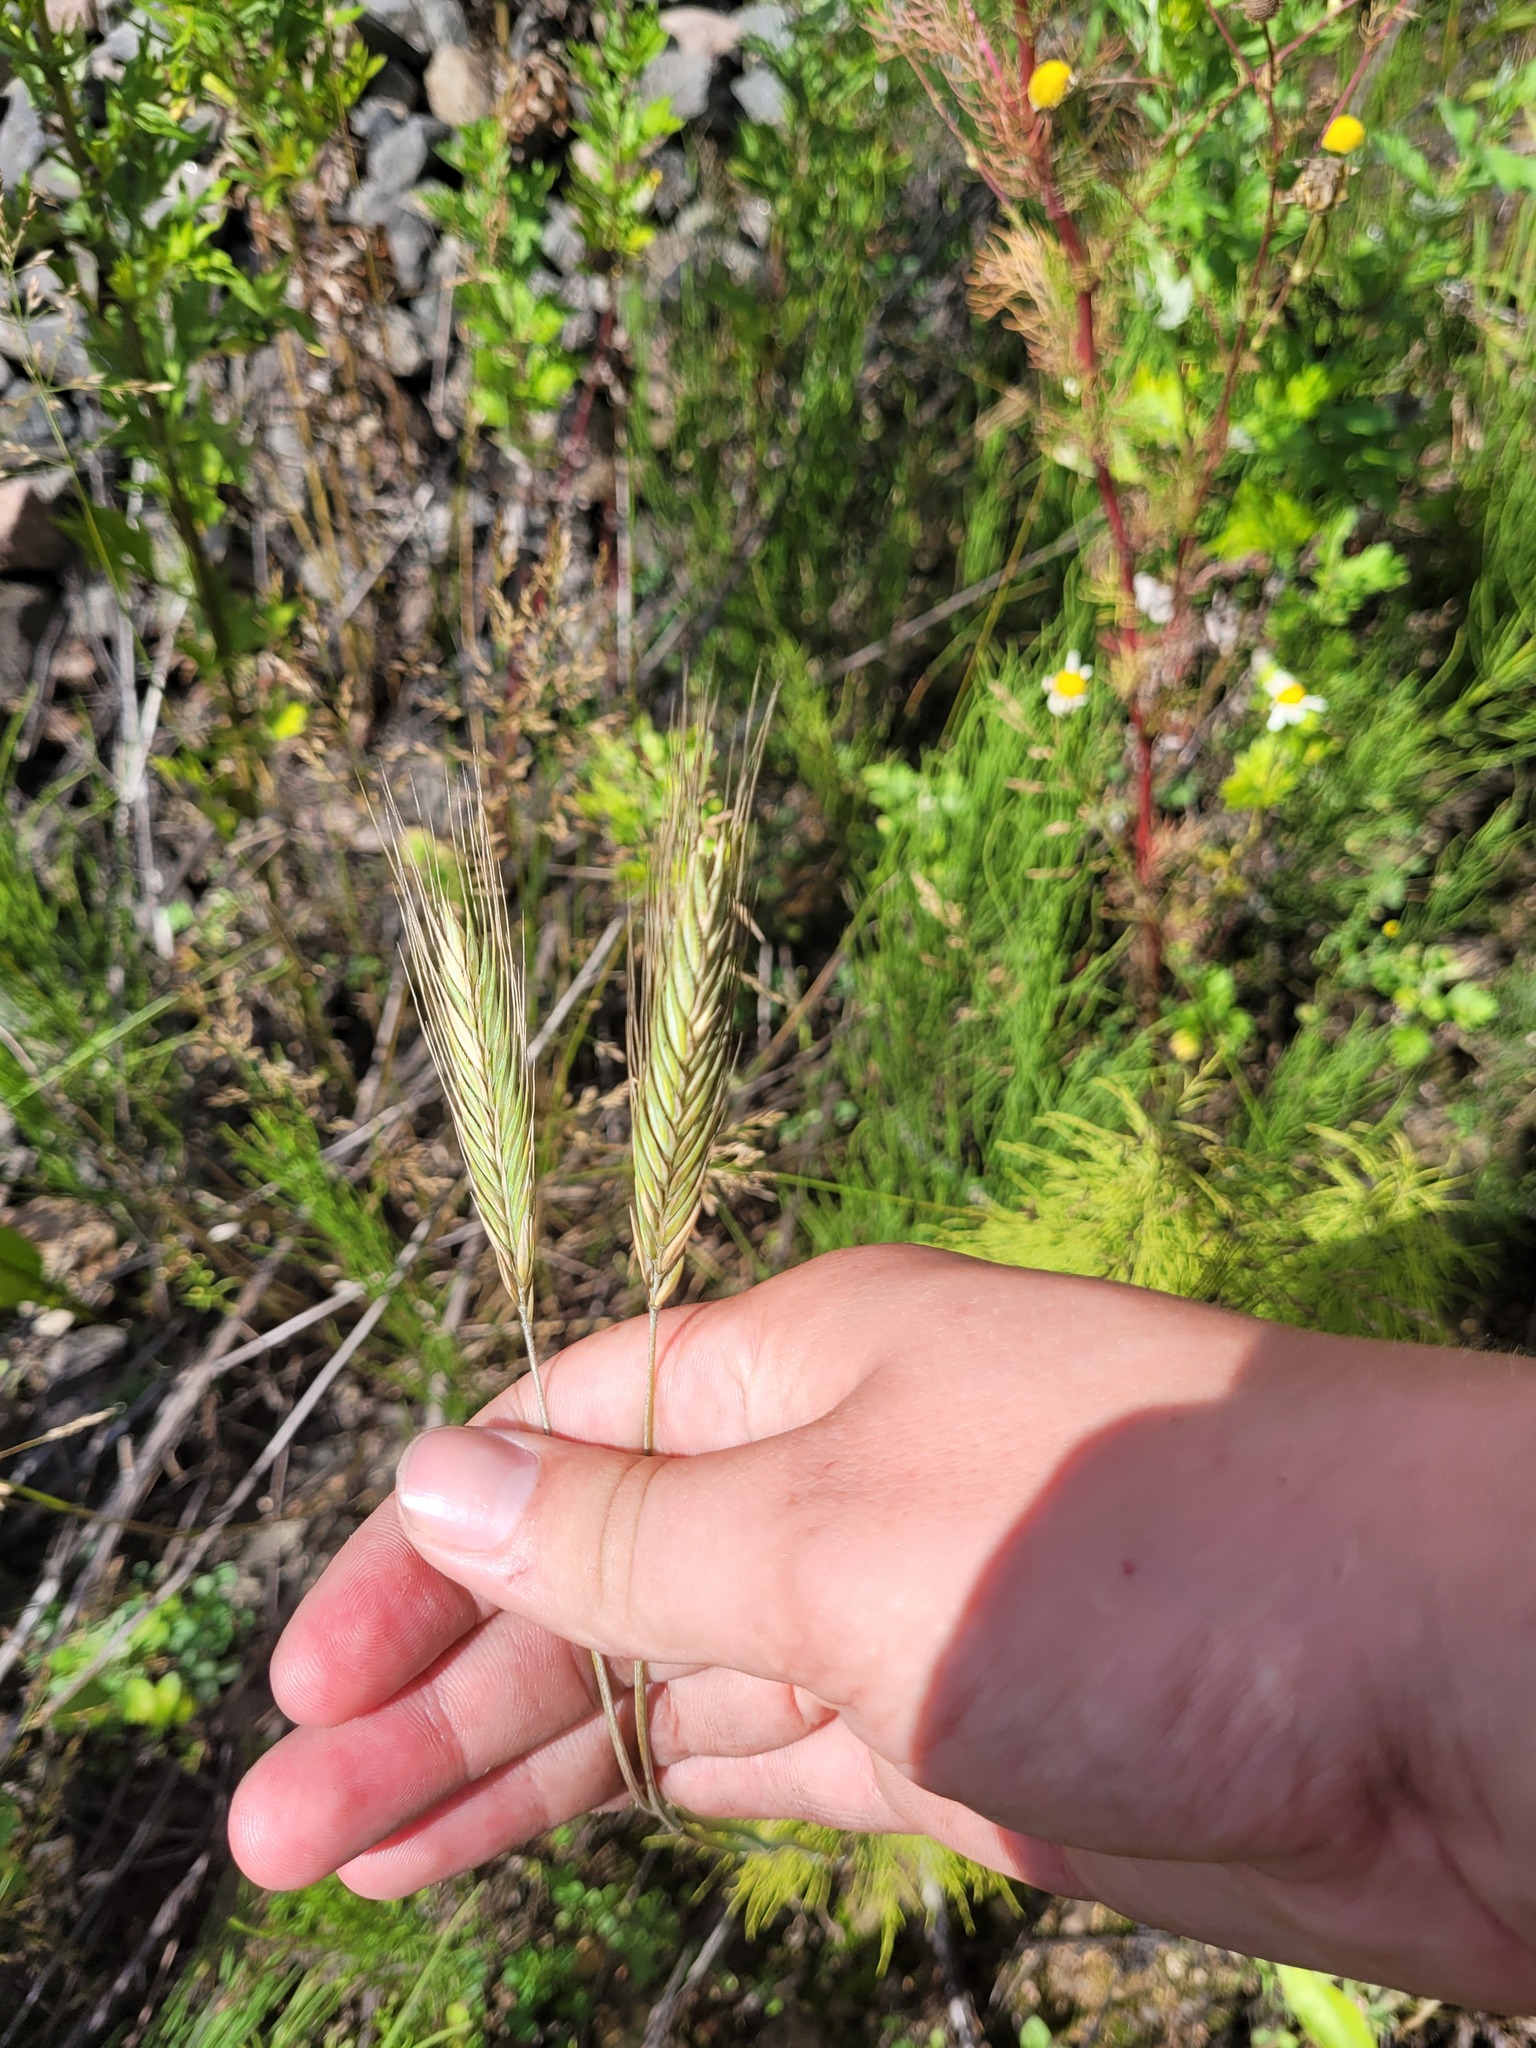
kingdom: Plantae
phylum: Tracheophyta
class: Liliopsida
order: Poales
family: Poaceae
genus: Secale
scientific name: Secale cereale
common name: Rye
